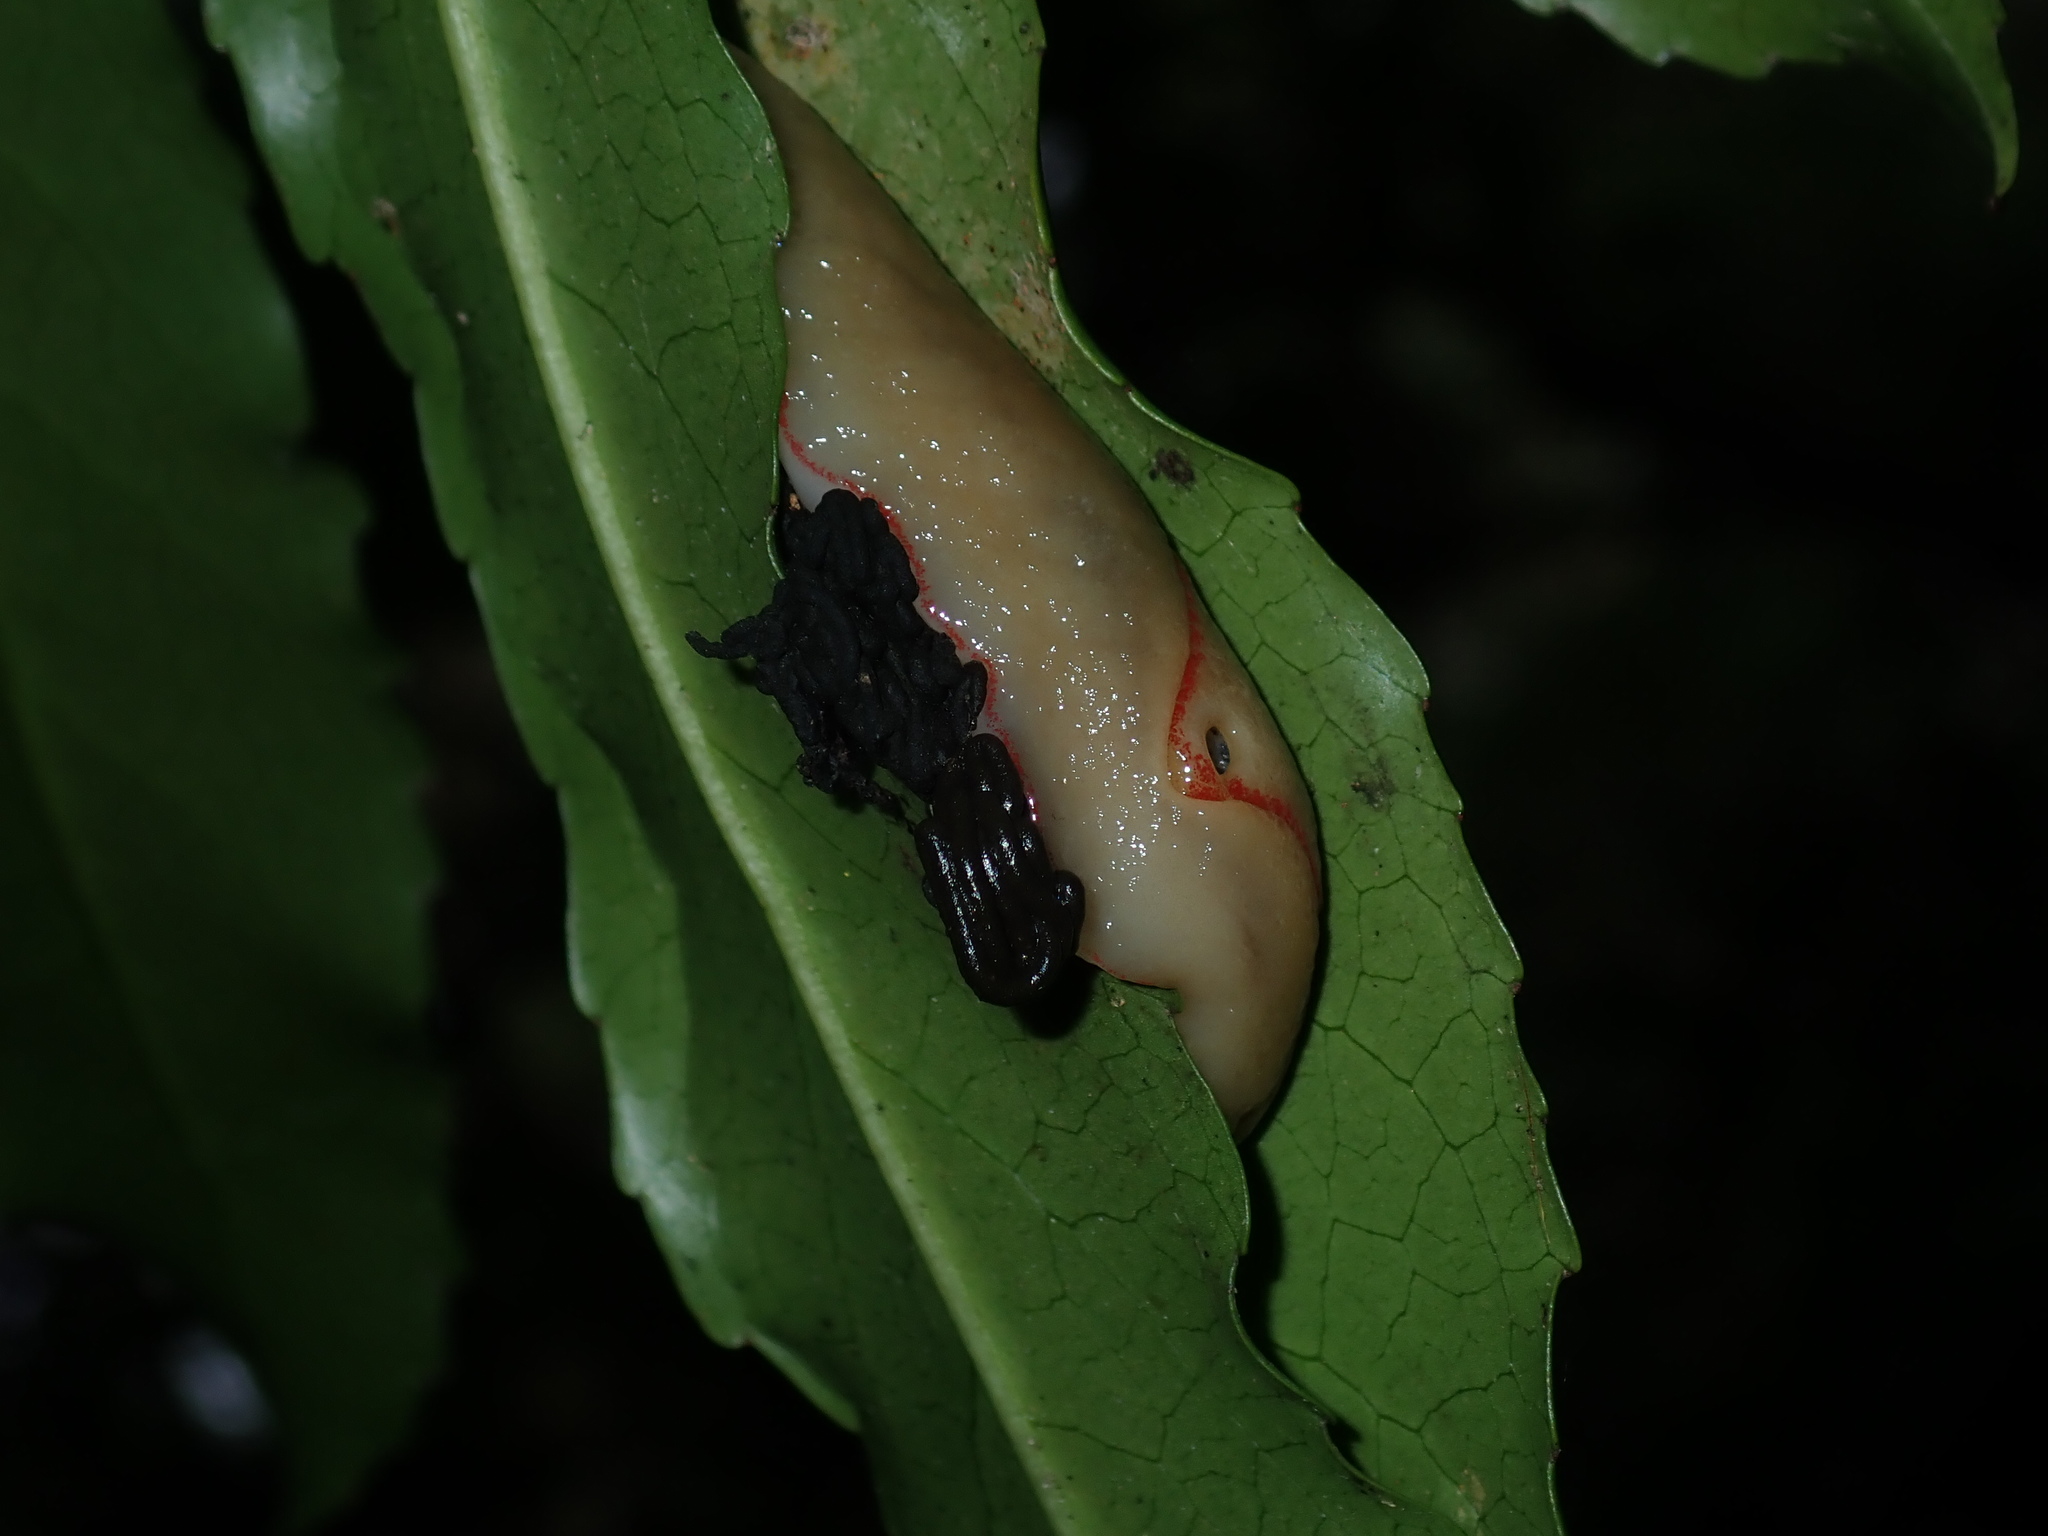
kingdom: Animalia
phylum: Mollusca
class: Gastropoda
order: Stylommatophora
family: Athoracophoridae
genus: Triboniophorus
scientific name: Triboniophorus graeffei
